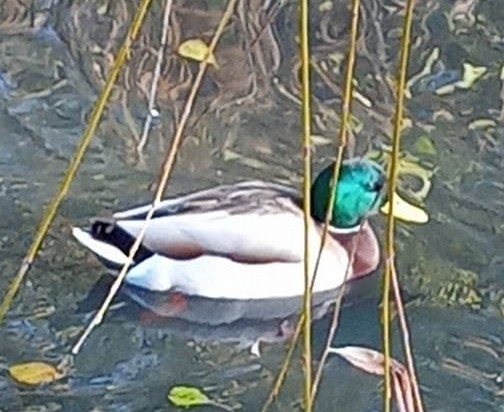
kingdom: Animalia
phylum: Chordata
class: Aves
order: Anseriformes
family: Anatidae
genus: Anas
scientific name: Anas platyrhynchos
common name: Mallard
